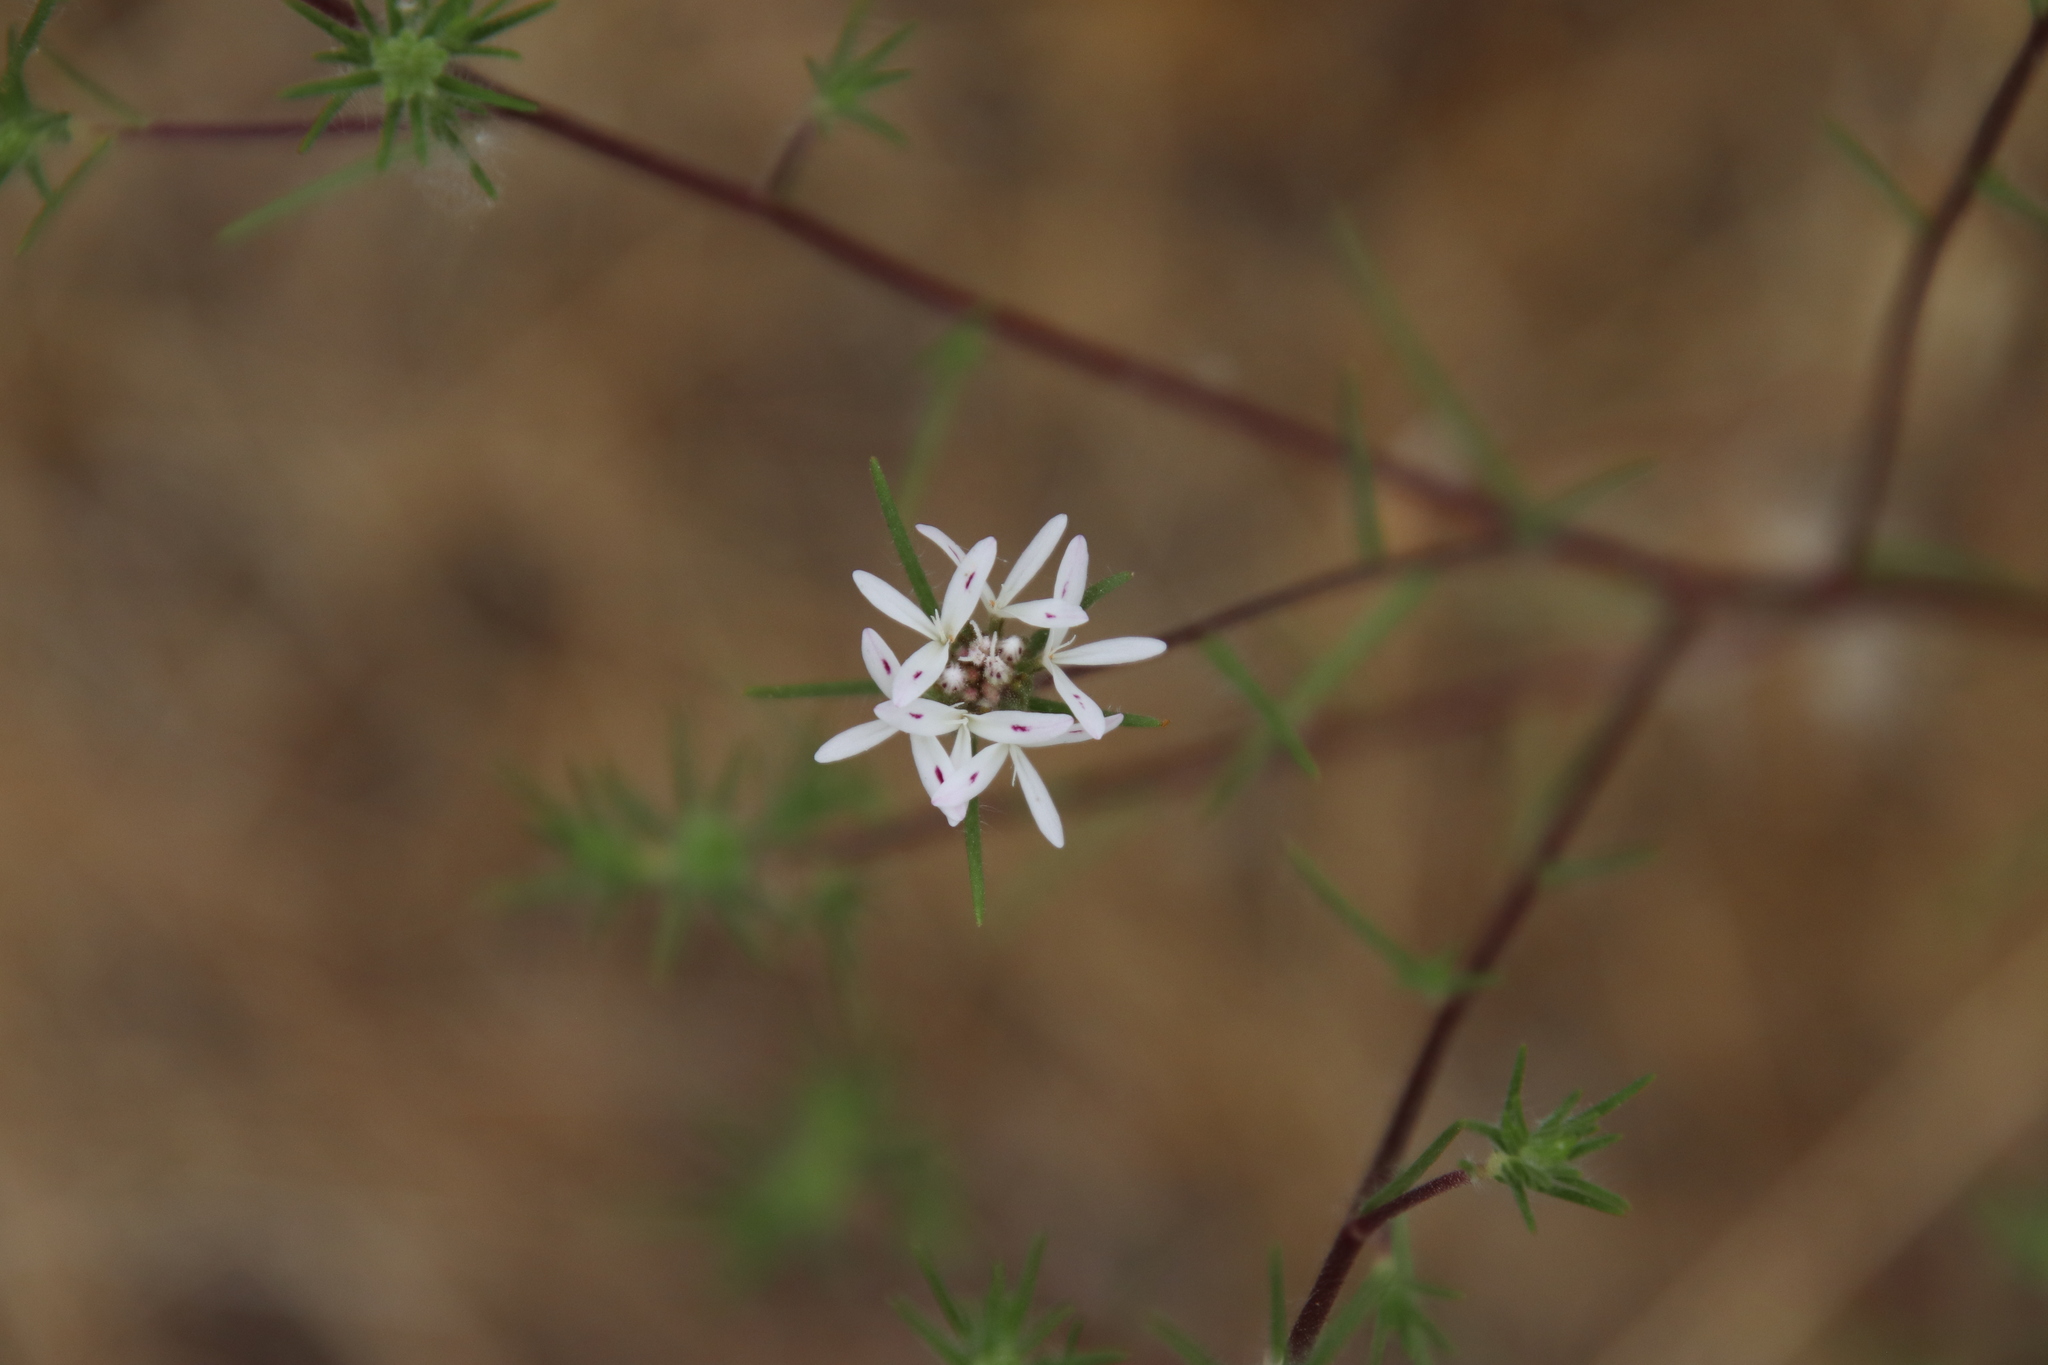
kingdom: Plantae
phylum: Tracheophyta
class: Magnoliopsida
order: Asterales
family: Asteraceae
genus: Osmadenia
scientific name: Osmadenia tenella
